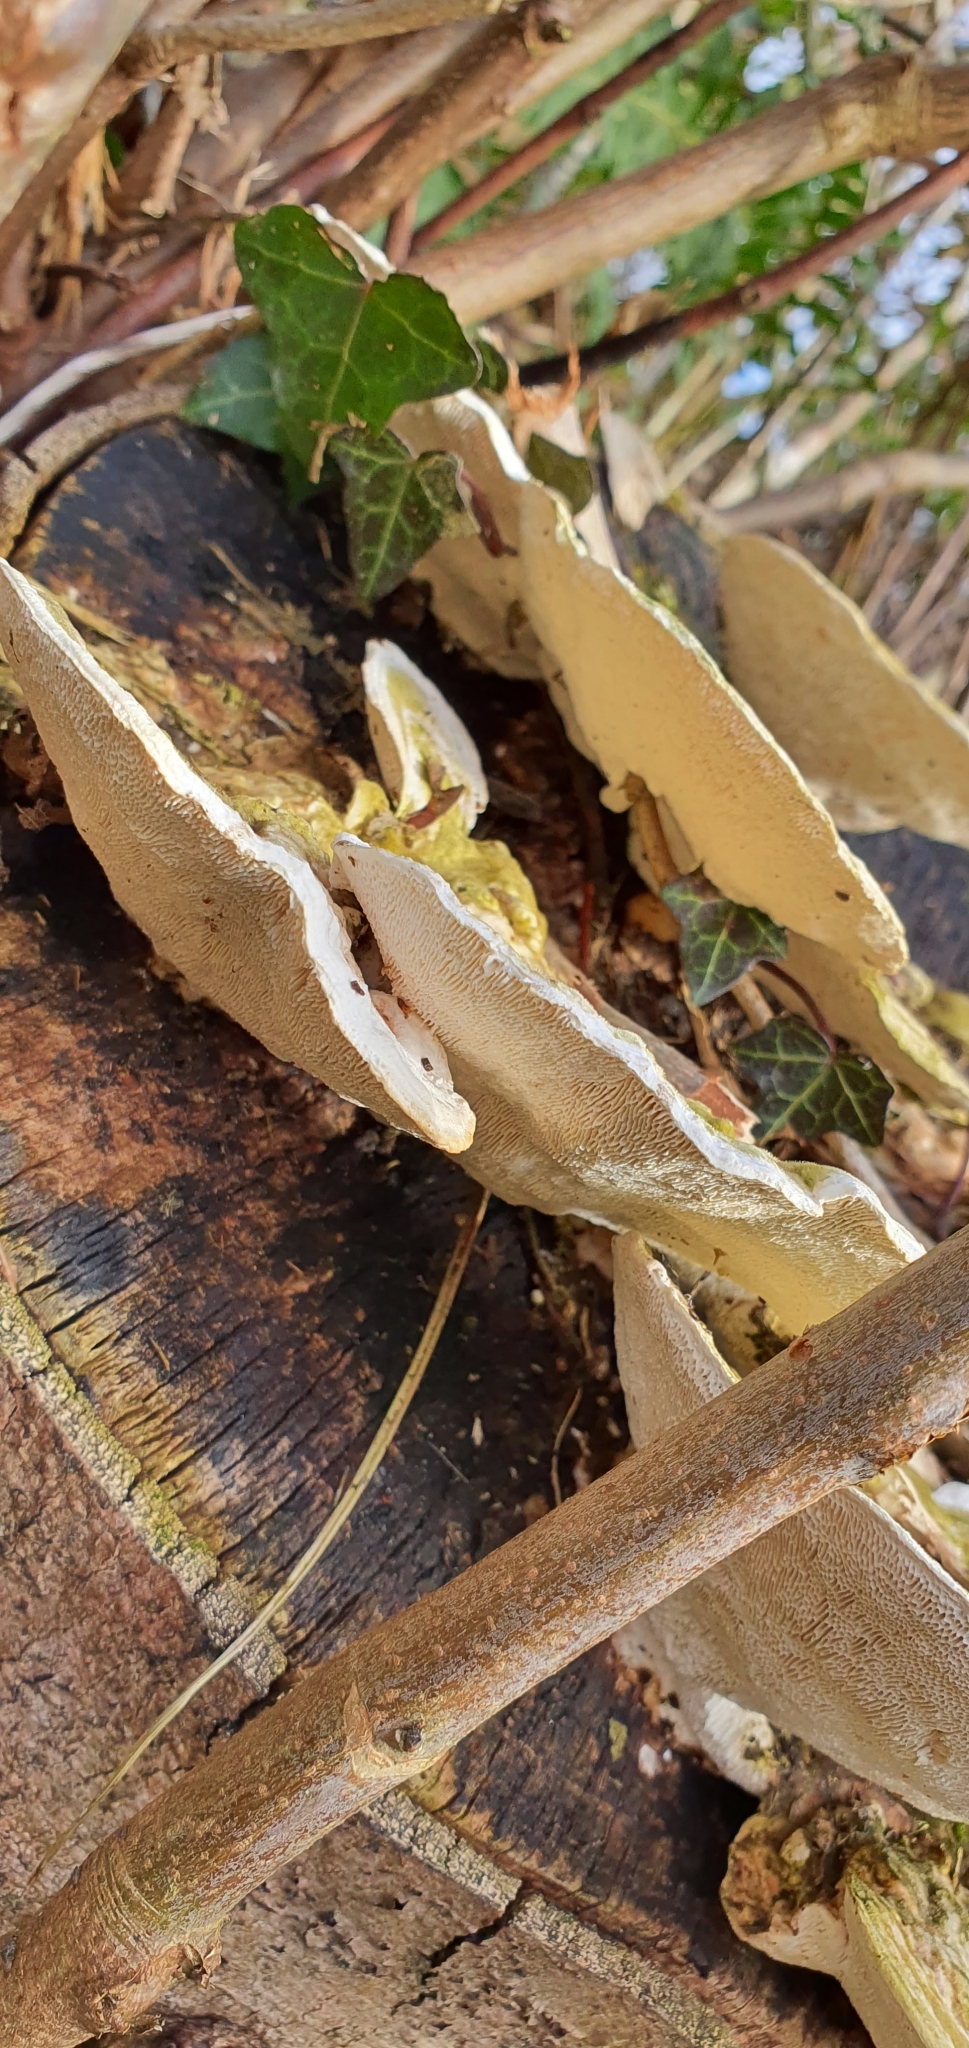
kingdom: Fungi
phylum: Basidiomycota
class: Agaricomycetes
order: Polyporales
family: Polyporaceae
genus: Trametes
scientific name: Trametes gibbosa
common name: Lumpy bracket
